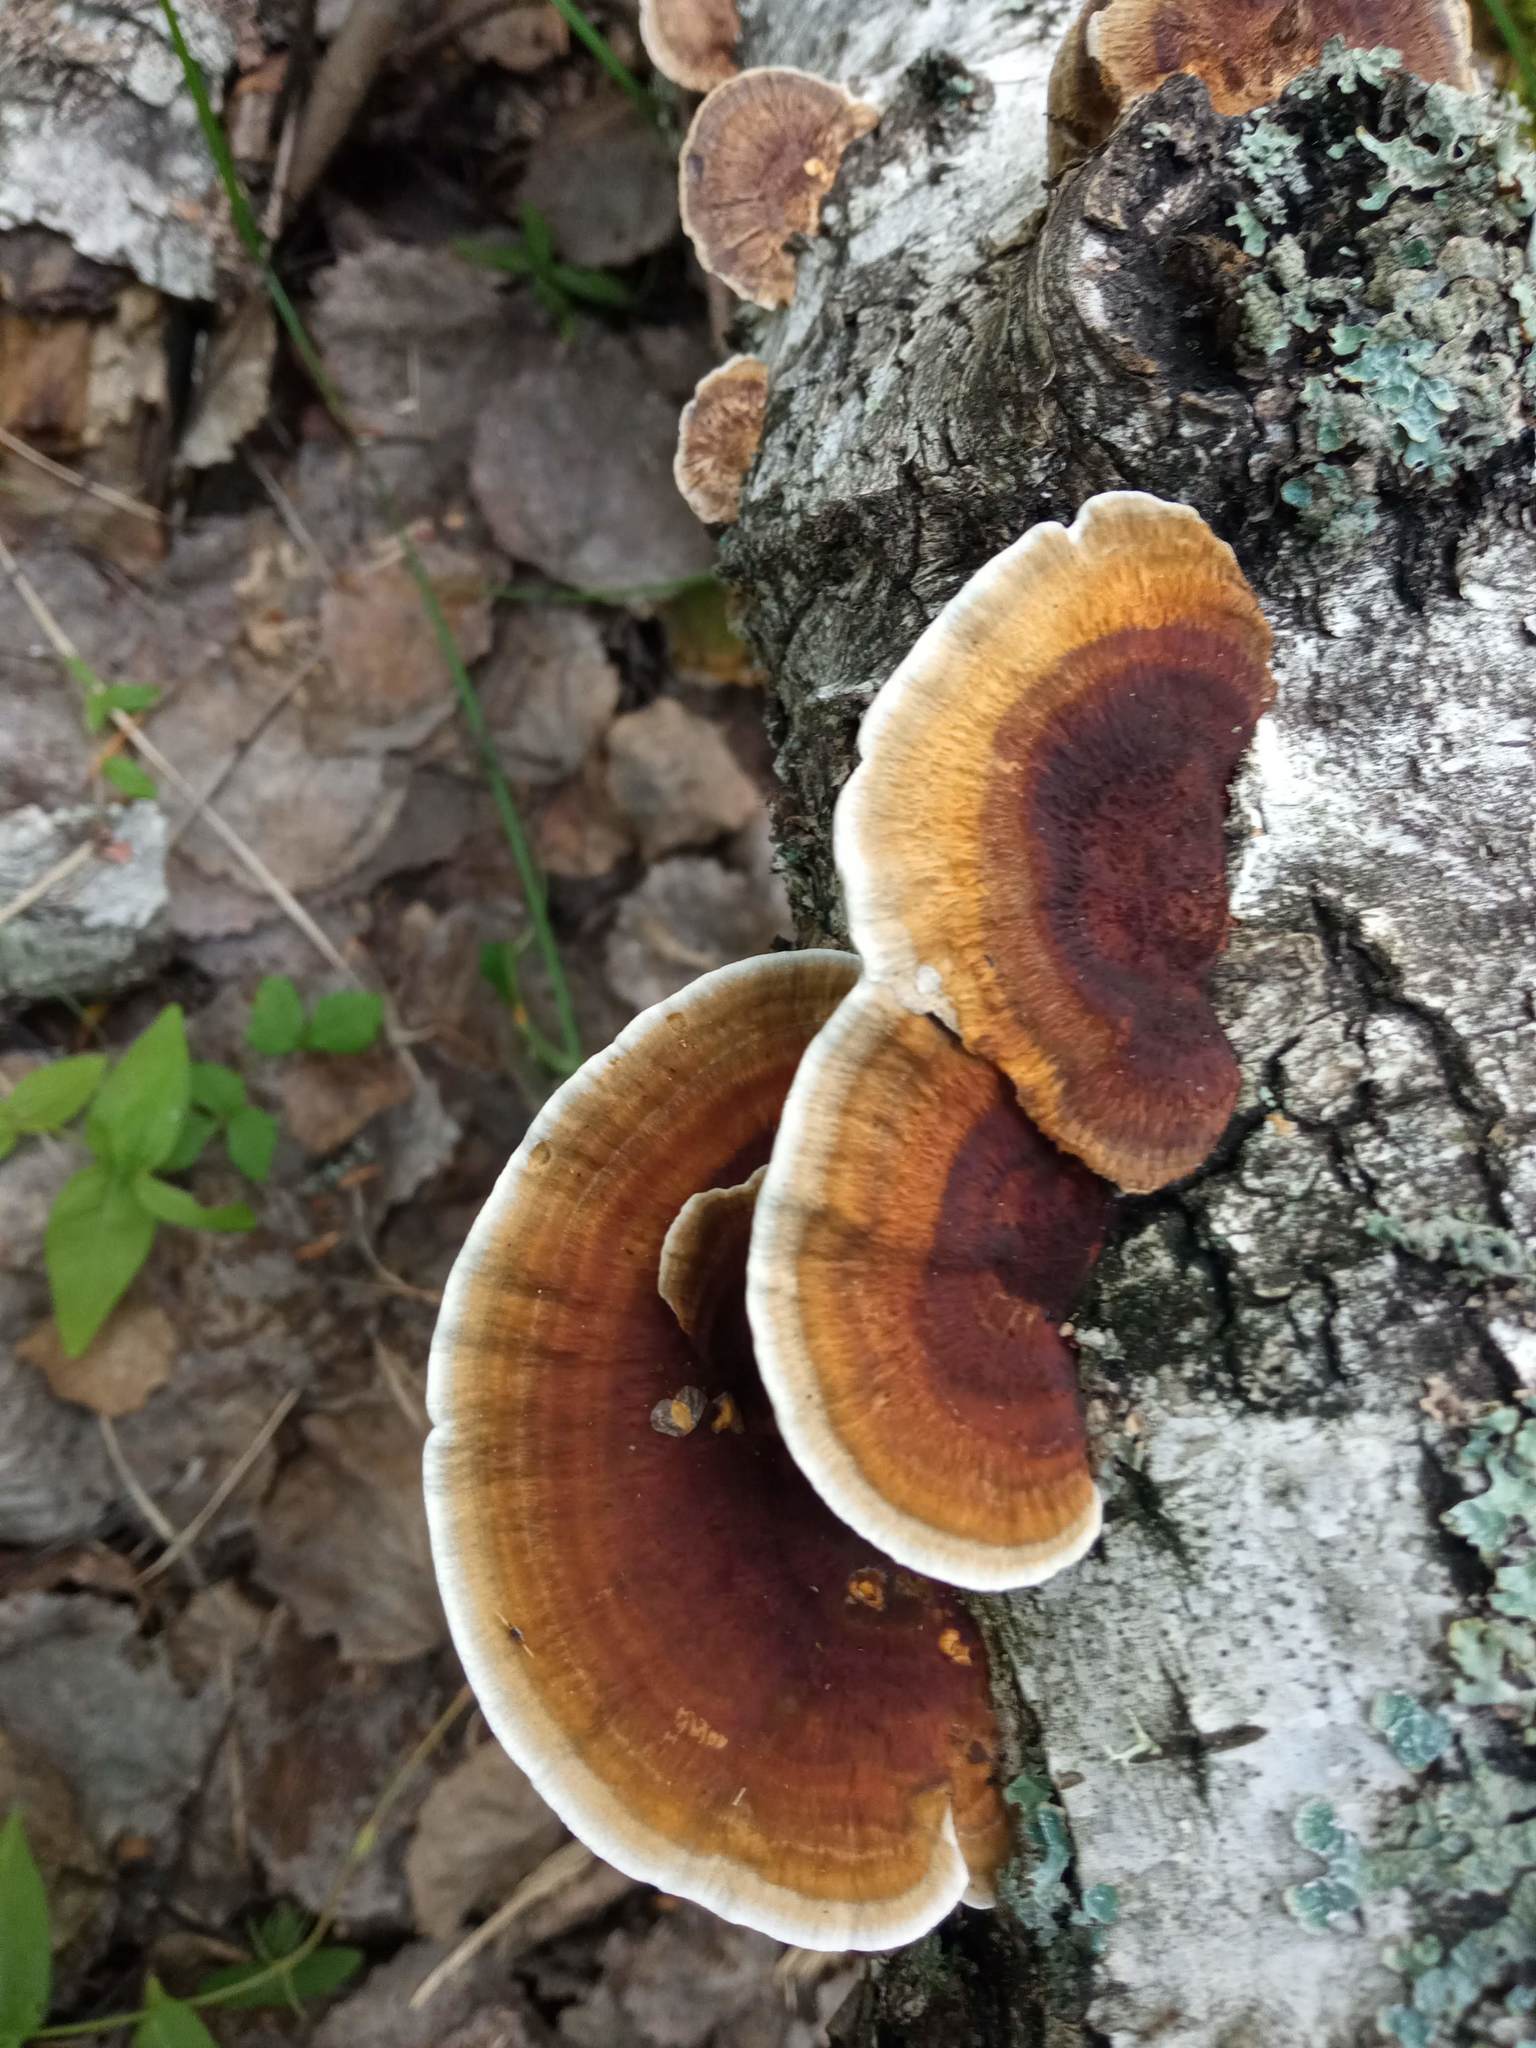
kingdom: Fungi
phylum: Basidiomycota
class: Agaricomycetes
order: Polyporales
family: Polyporaceae
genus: Daedaleopsis
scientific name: Daedaleopsis septentrionalis
